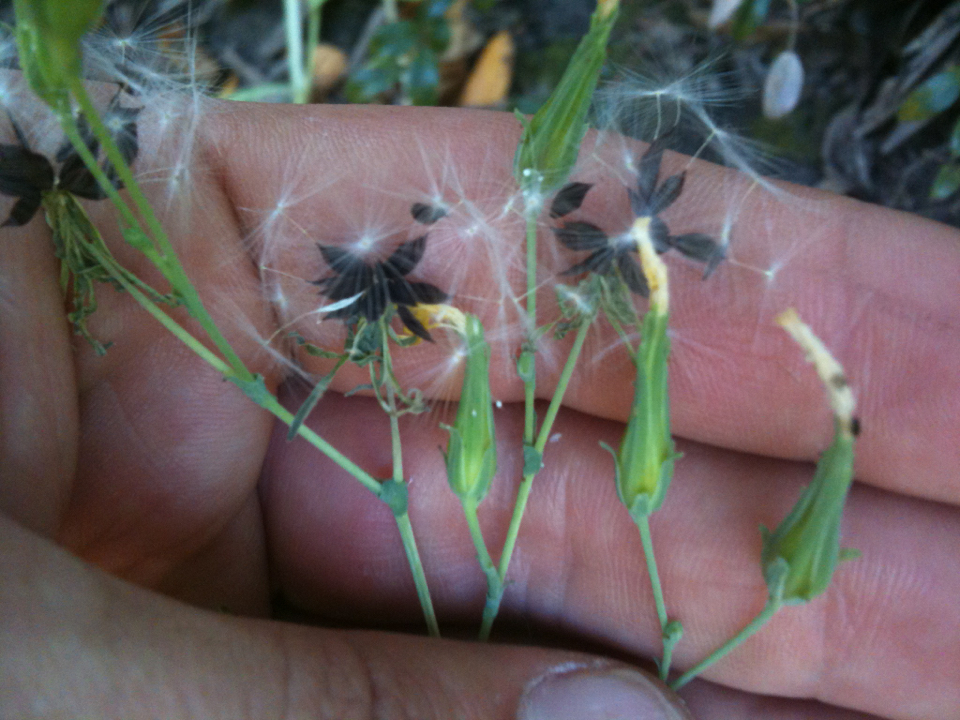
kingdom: Plantae
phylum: Tracheophyta
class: Magnoliopsida
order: Asterales
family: Asteraceae
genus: Lactuca
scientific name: Lactuca virosa
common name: Great lettuce
